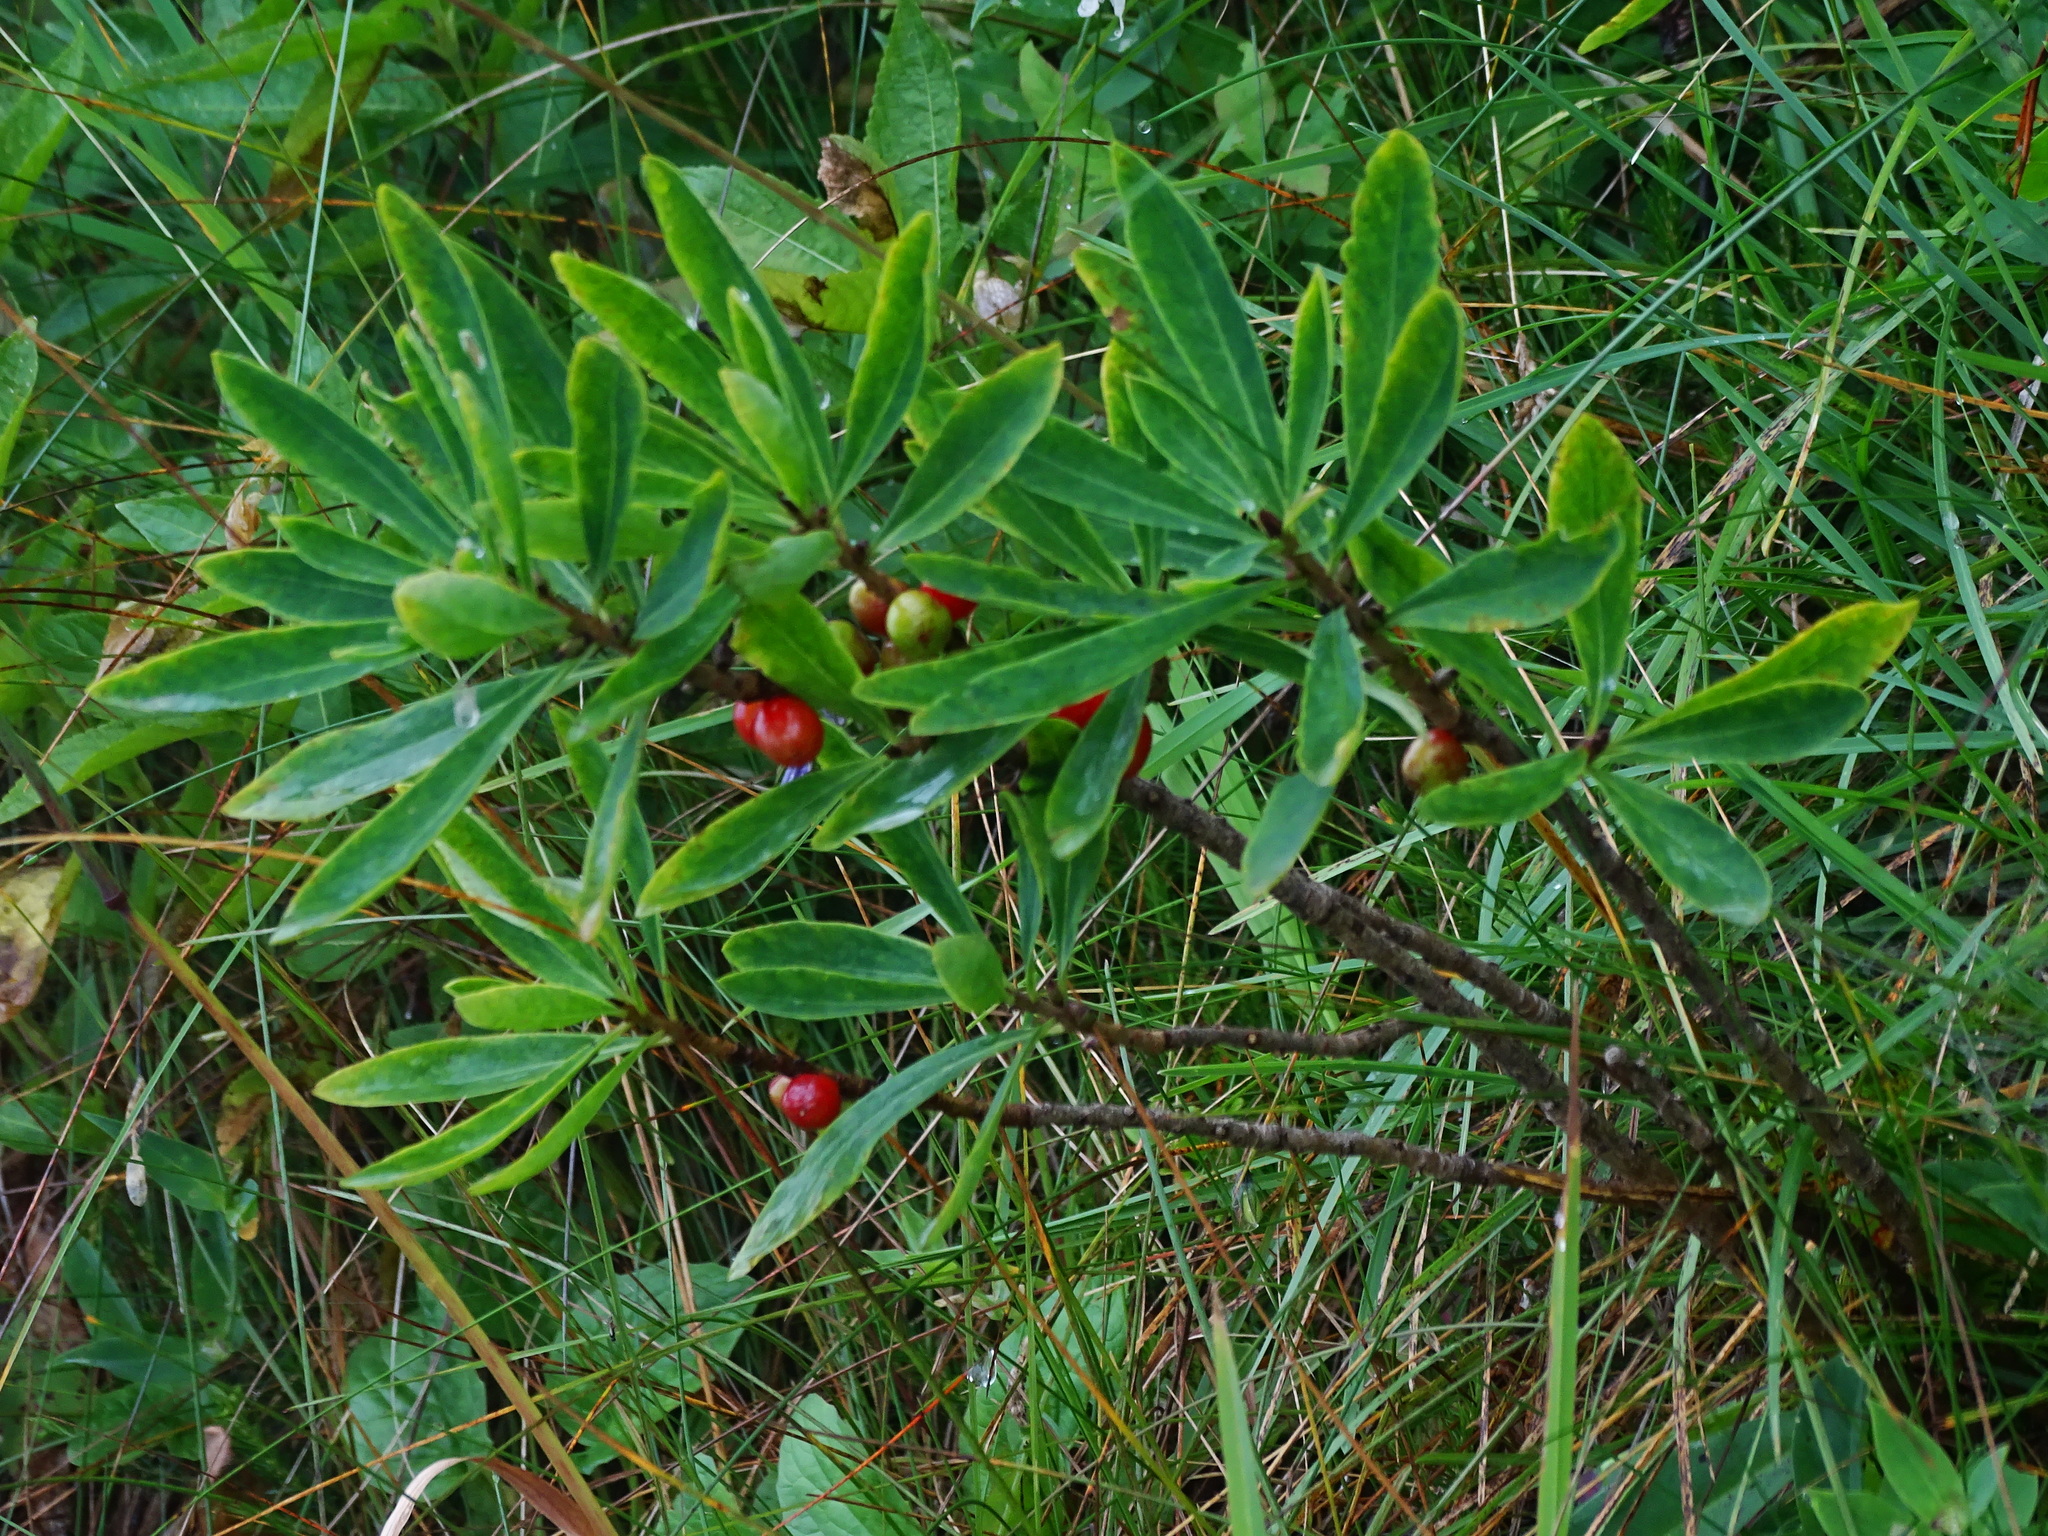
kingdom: Plantae
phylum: Tracheophyta
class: Magnoliopsida
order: Malvales
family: Thymelaeaceae
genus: Daphne
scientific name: Daphne mezereum
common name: Mezereon
